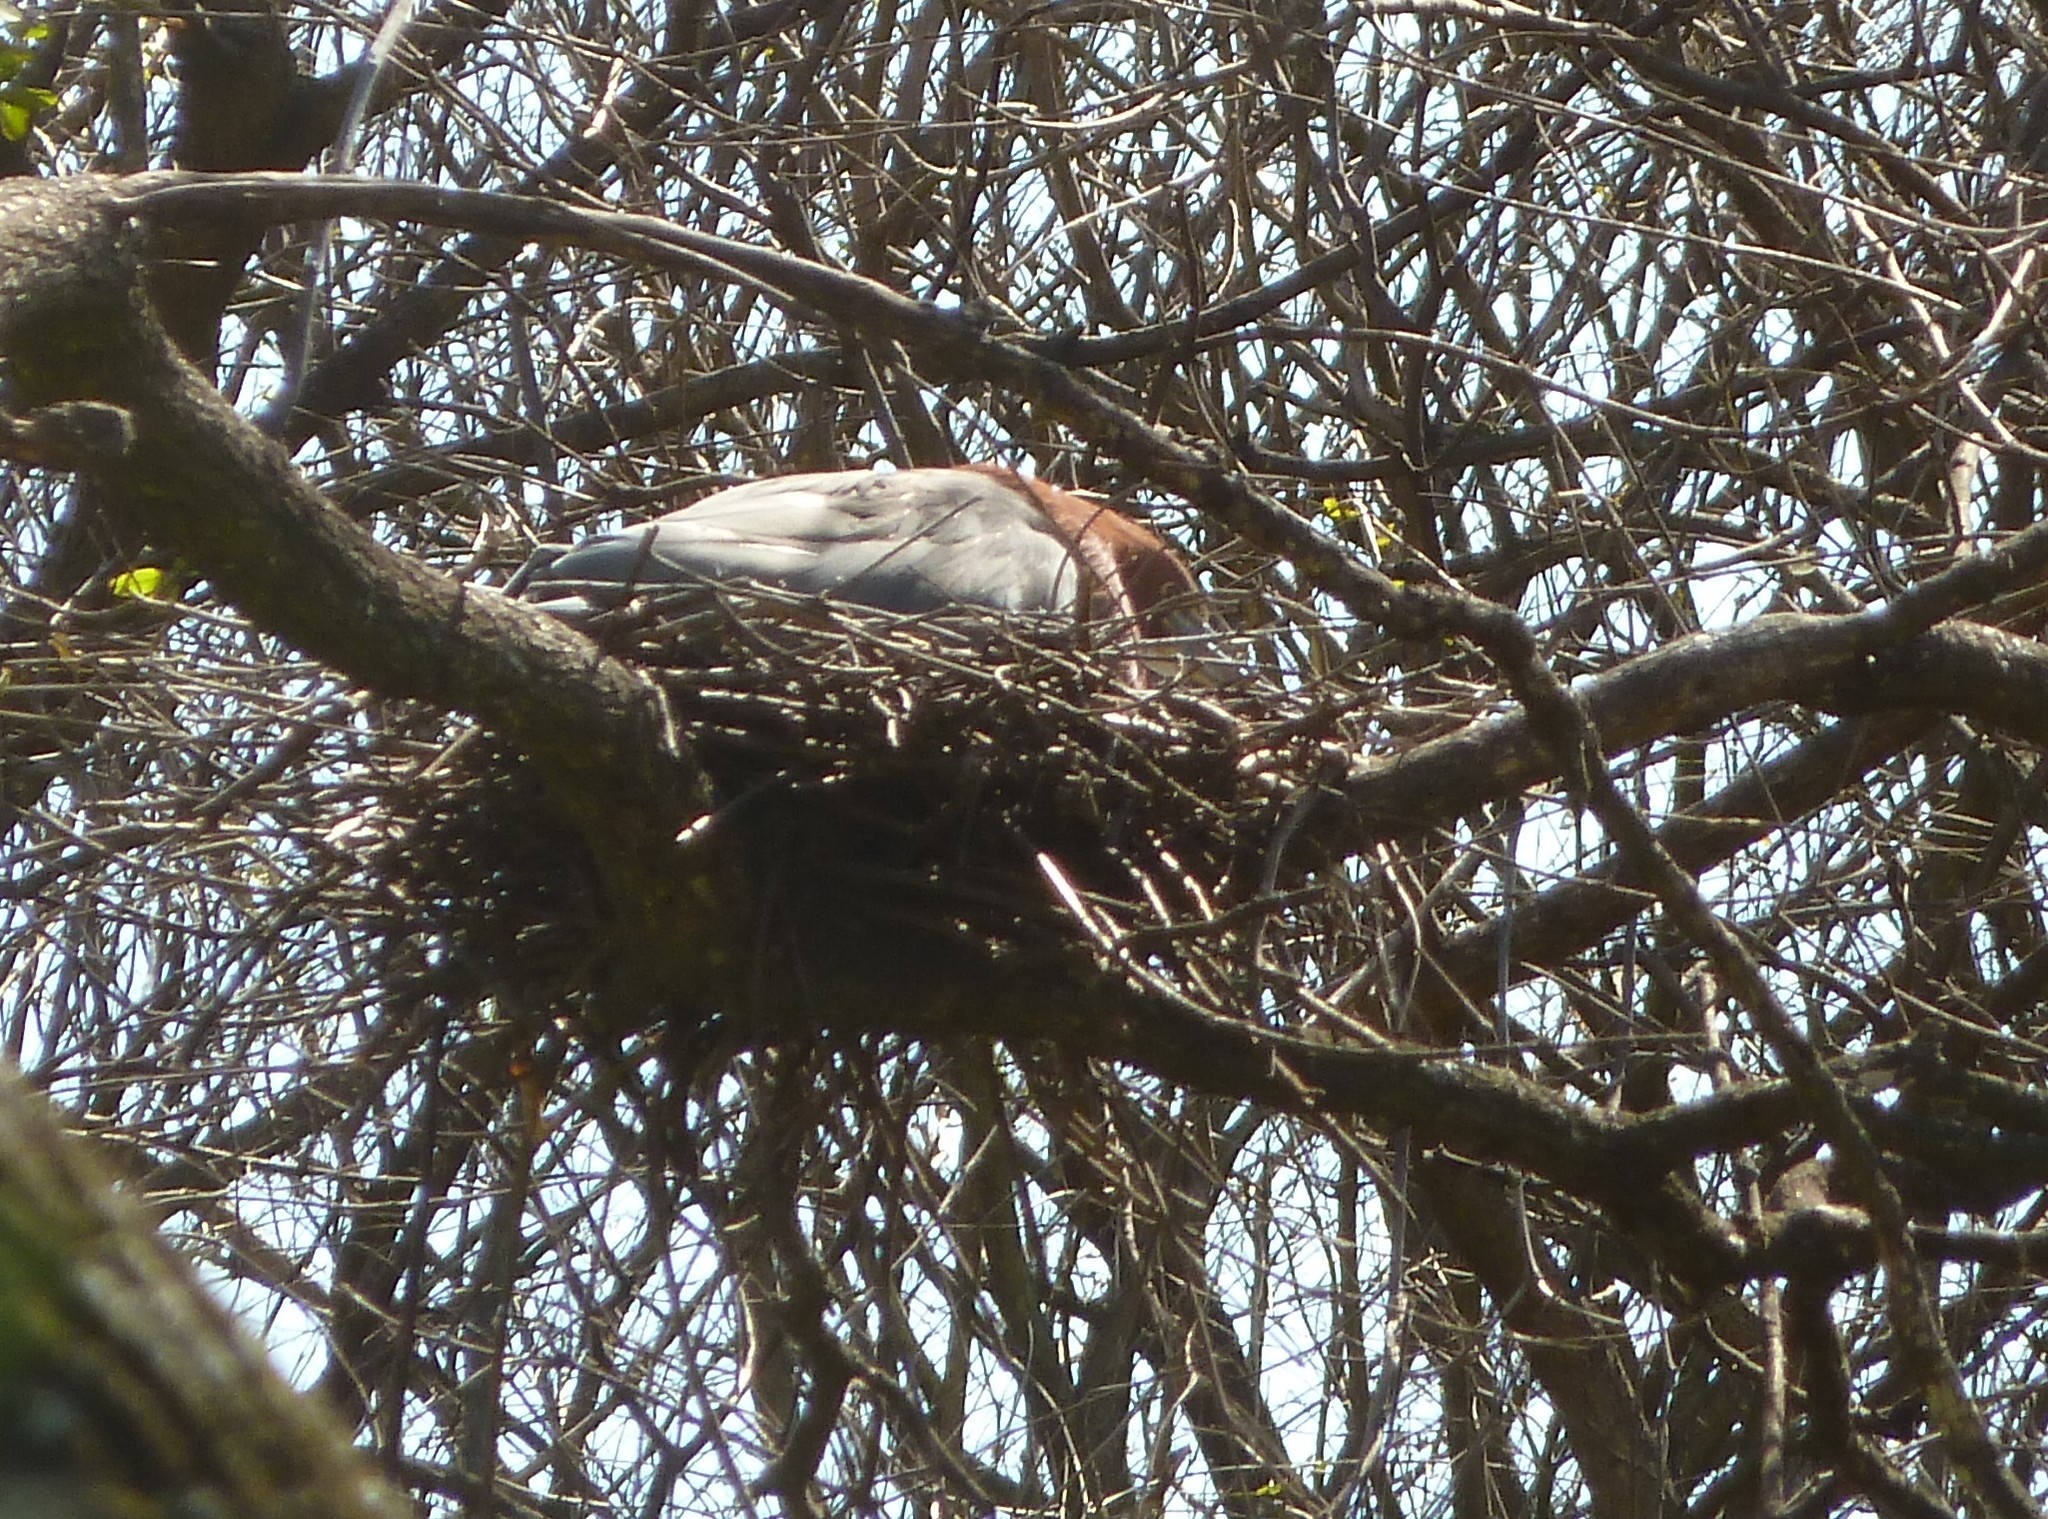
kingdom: Animalia
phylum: Chordata
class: Aves
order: Pelecaniformes
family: Ardeidae
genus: Tigrisoma
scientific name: Tigrisoma lineatum
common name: Rufescent tiger-heron
